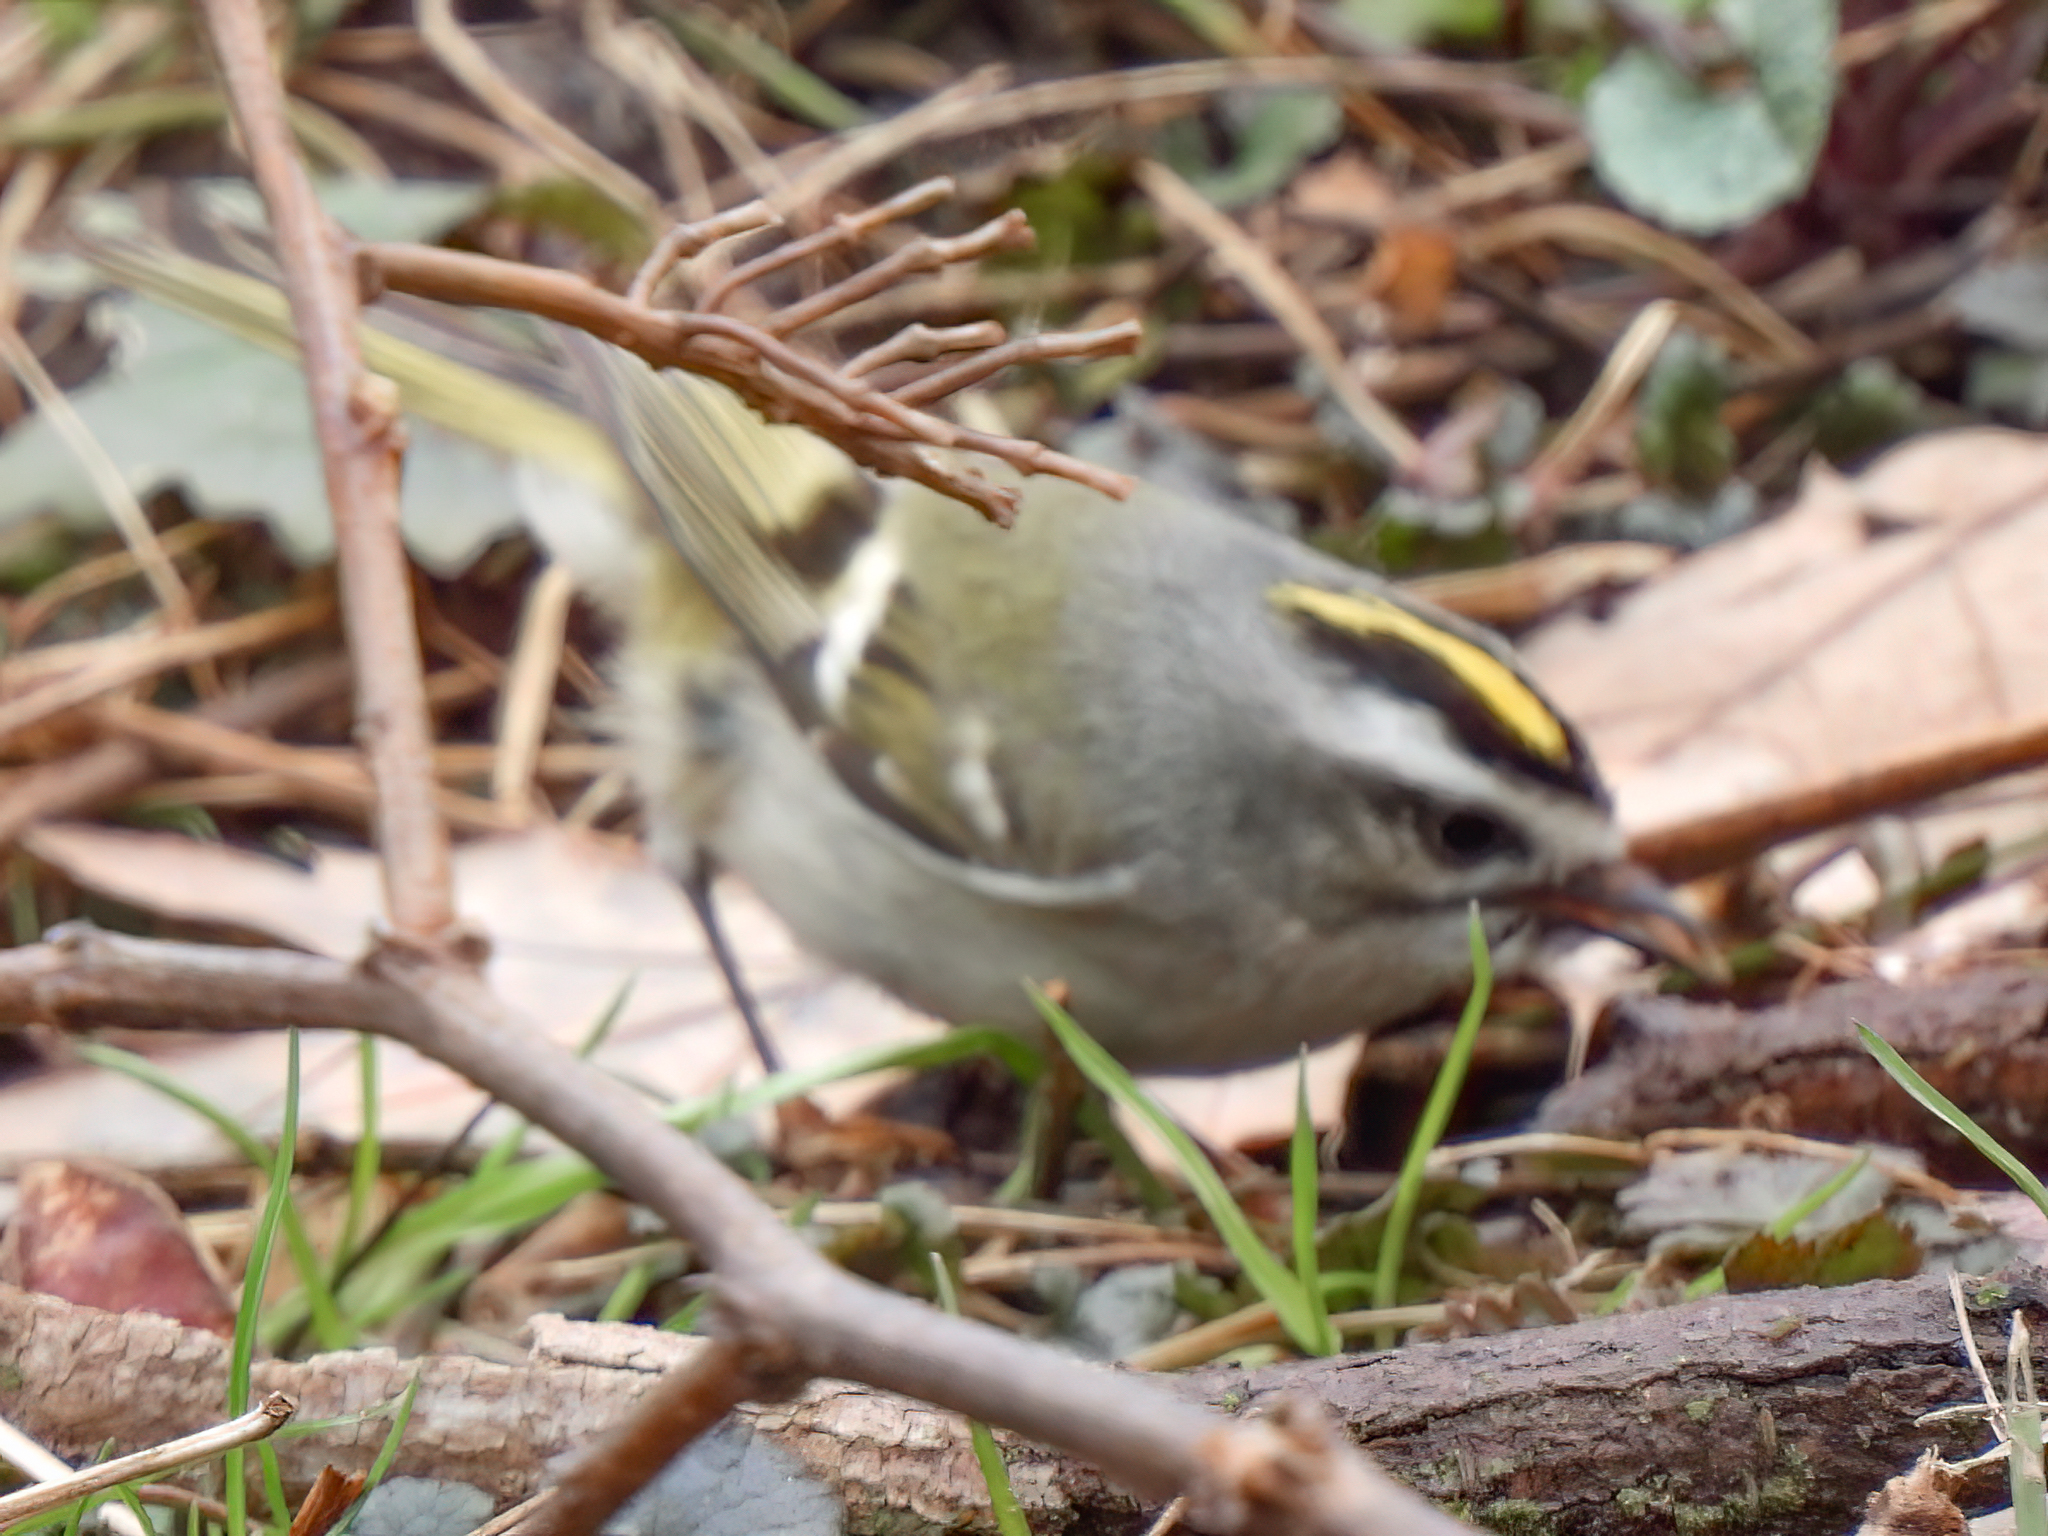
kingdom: Animalia
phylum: Chordata
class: Aves
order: Passeriformes
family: Regulidae
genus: Regulus
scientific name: Regulus satrapa
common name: Golden-crowned kinglet
